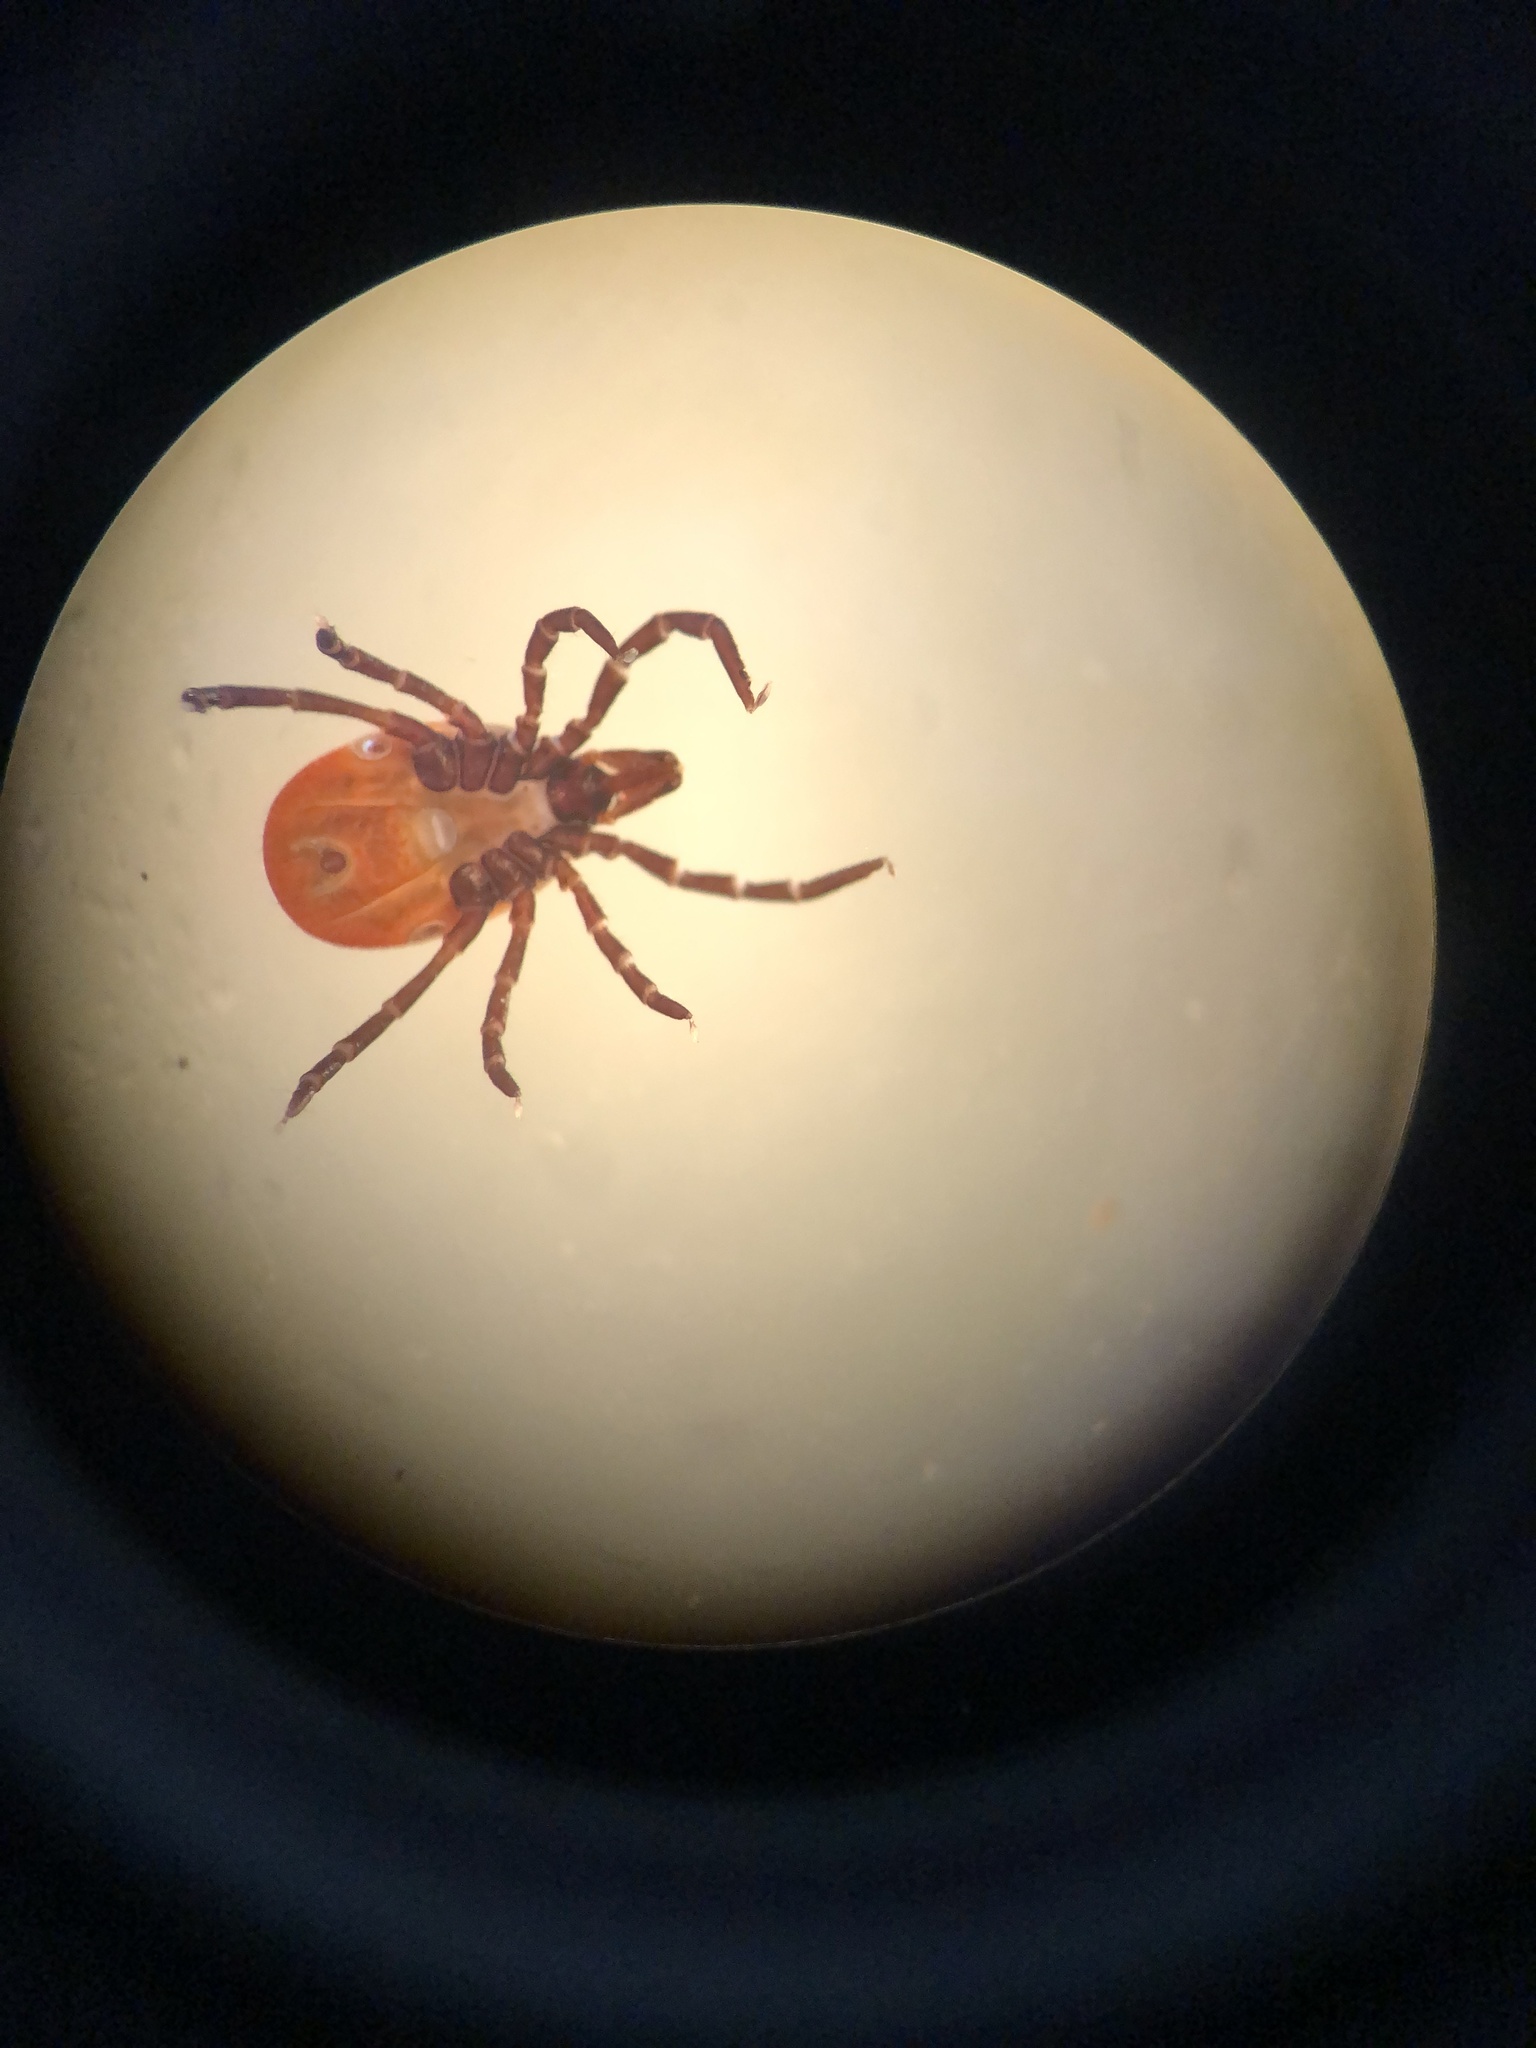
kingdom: Animalia
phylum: Arthropoda
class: Arachnida
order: Ixodida
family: Ixodidae
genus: Ixodes
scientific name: Ixodes ricinus
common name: Castor bean tick
